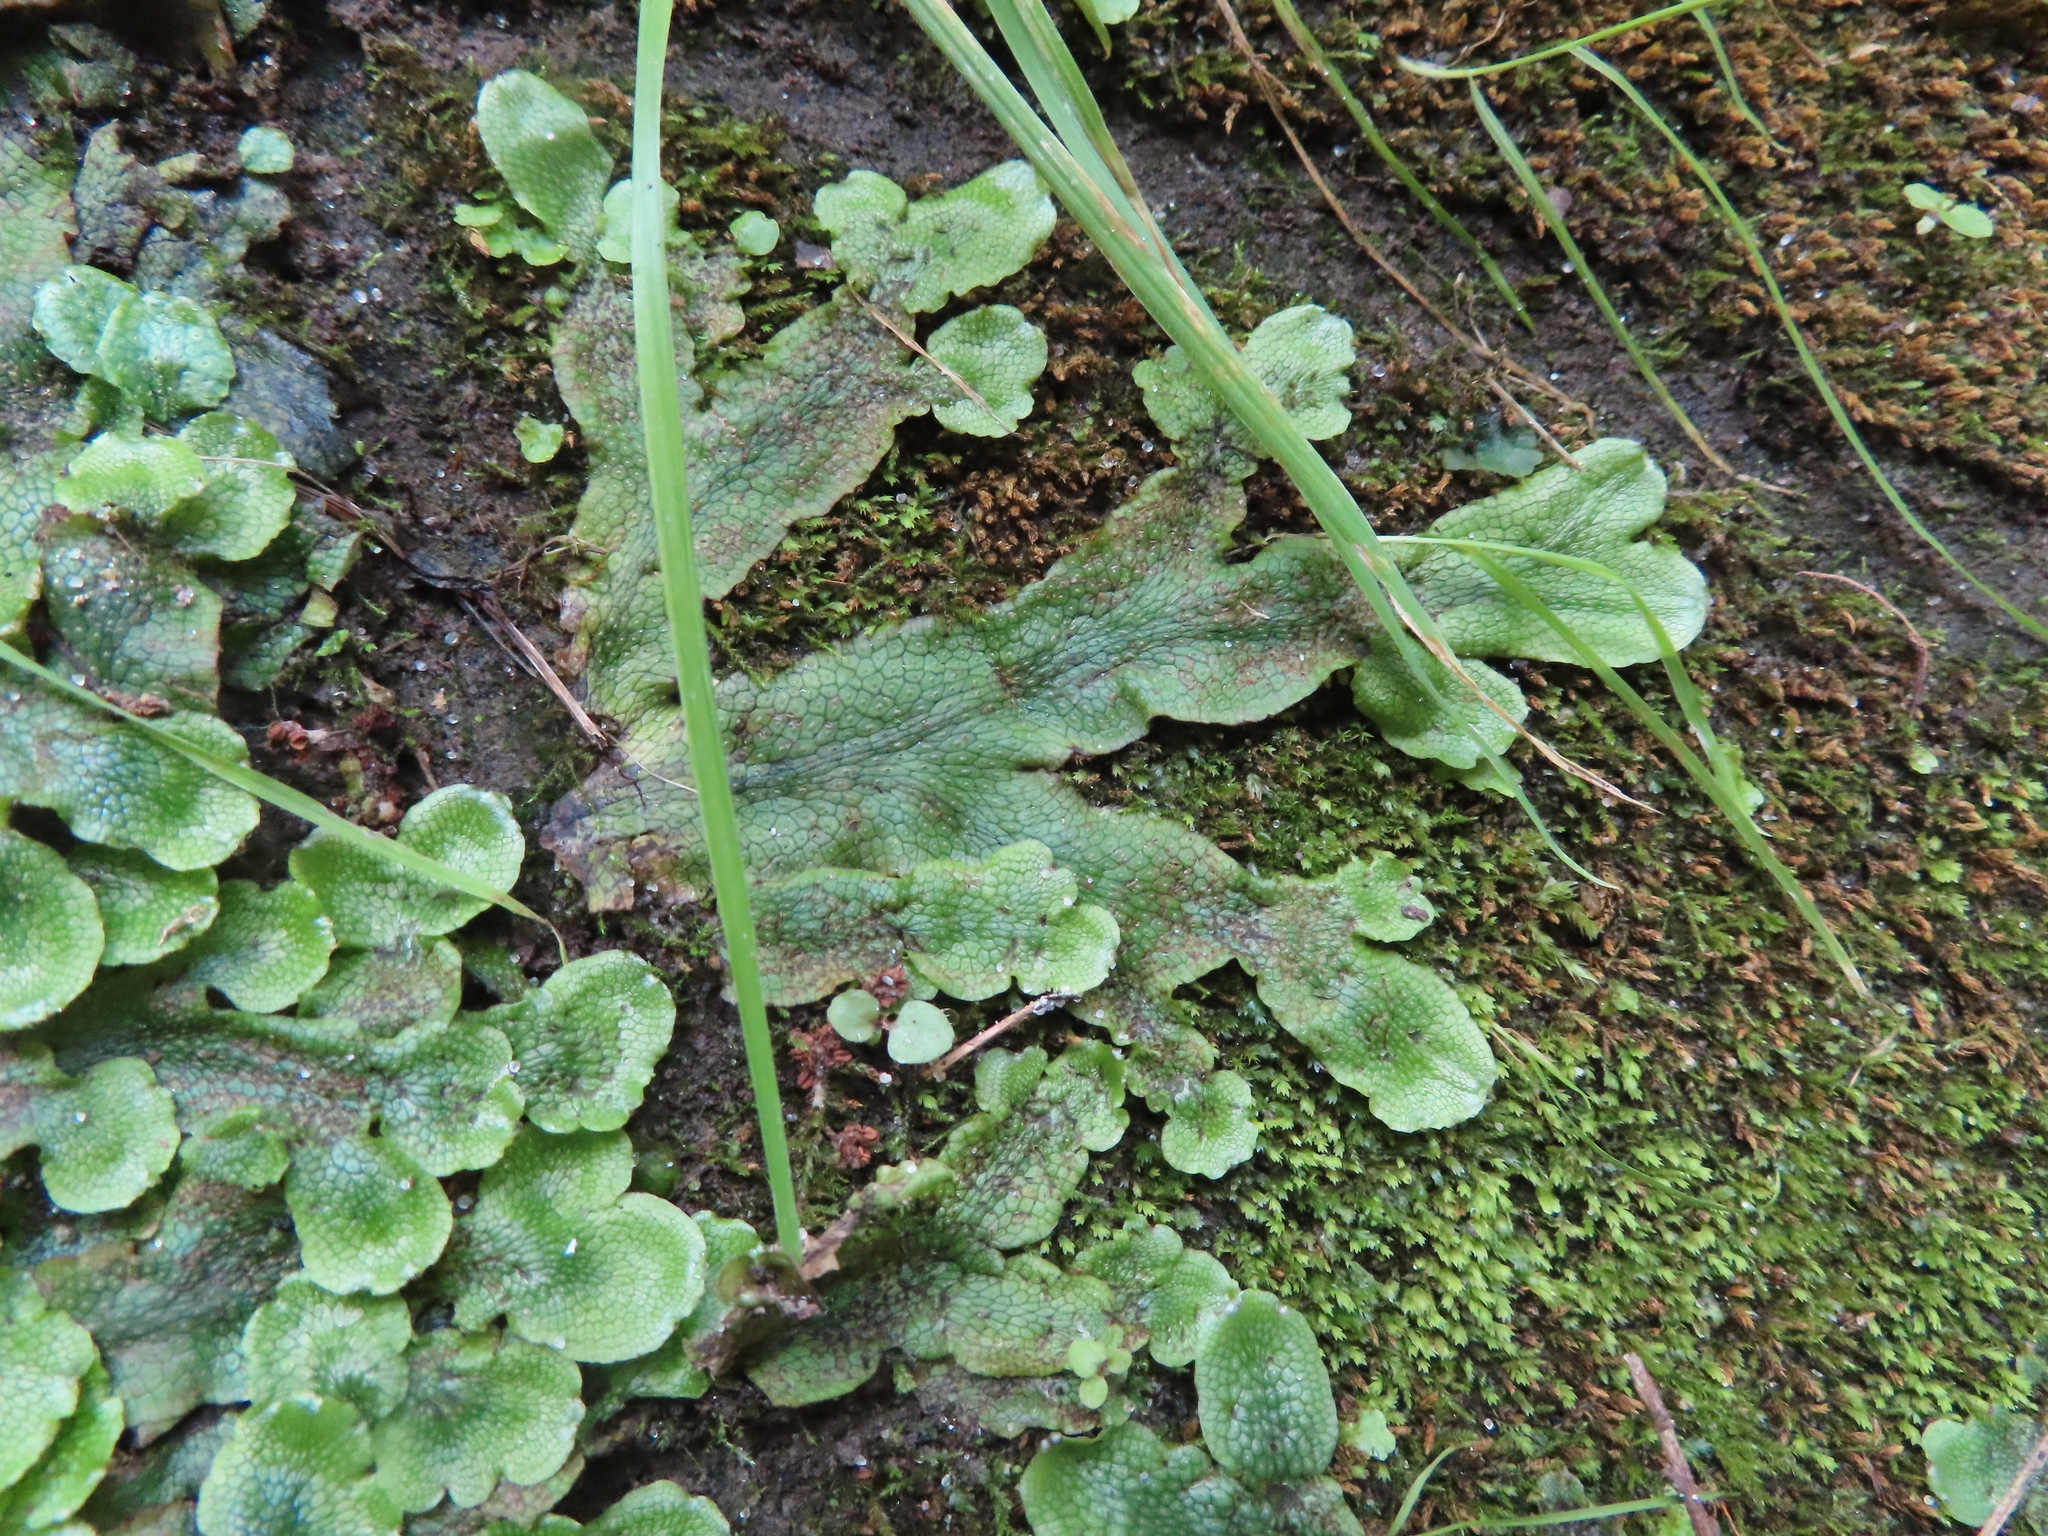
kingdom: Plantae
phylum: Marchantiophyta
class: Marchantiopsida
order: Marchantiales
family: Conocephalaceae
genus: Conocephalum
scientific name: Conocephalum salebrosum
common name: Cat-tongue liverwort
